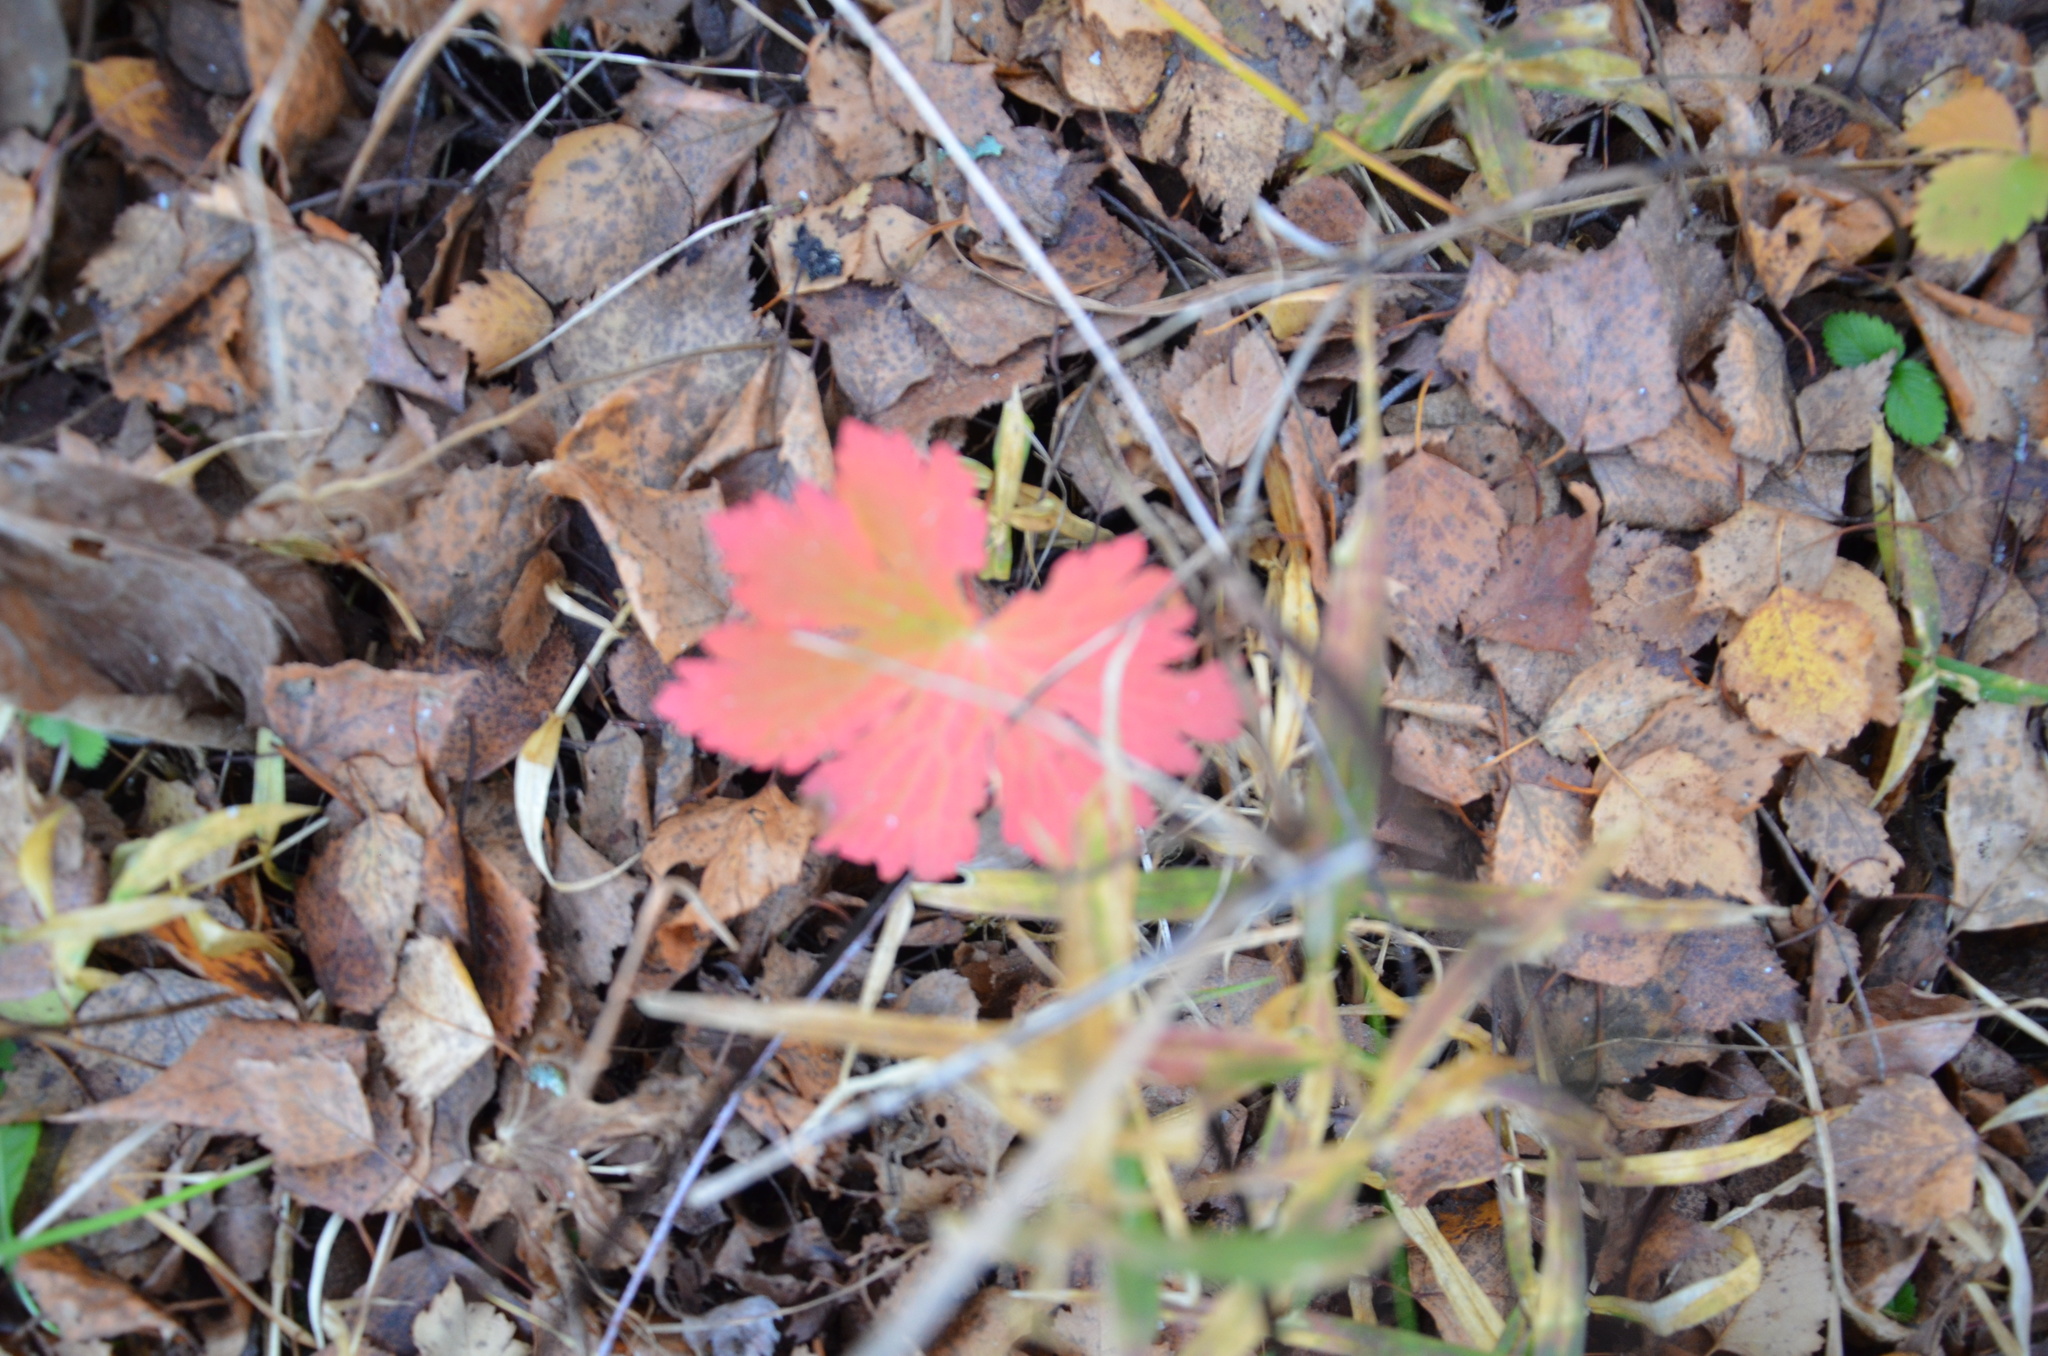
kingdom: Plantae
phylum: Tracheophyta
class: Magnoliopsida
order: Geraniales
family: Geraniaceae
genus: Geranium
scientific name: Geranium sylvaticum
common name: Wood crane's-bill
